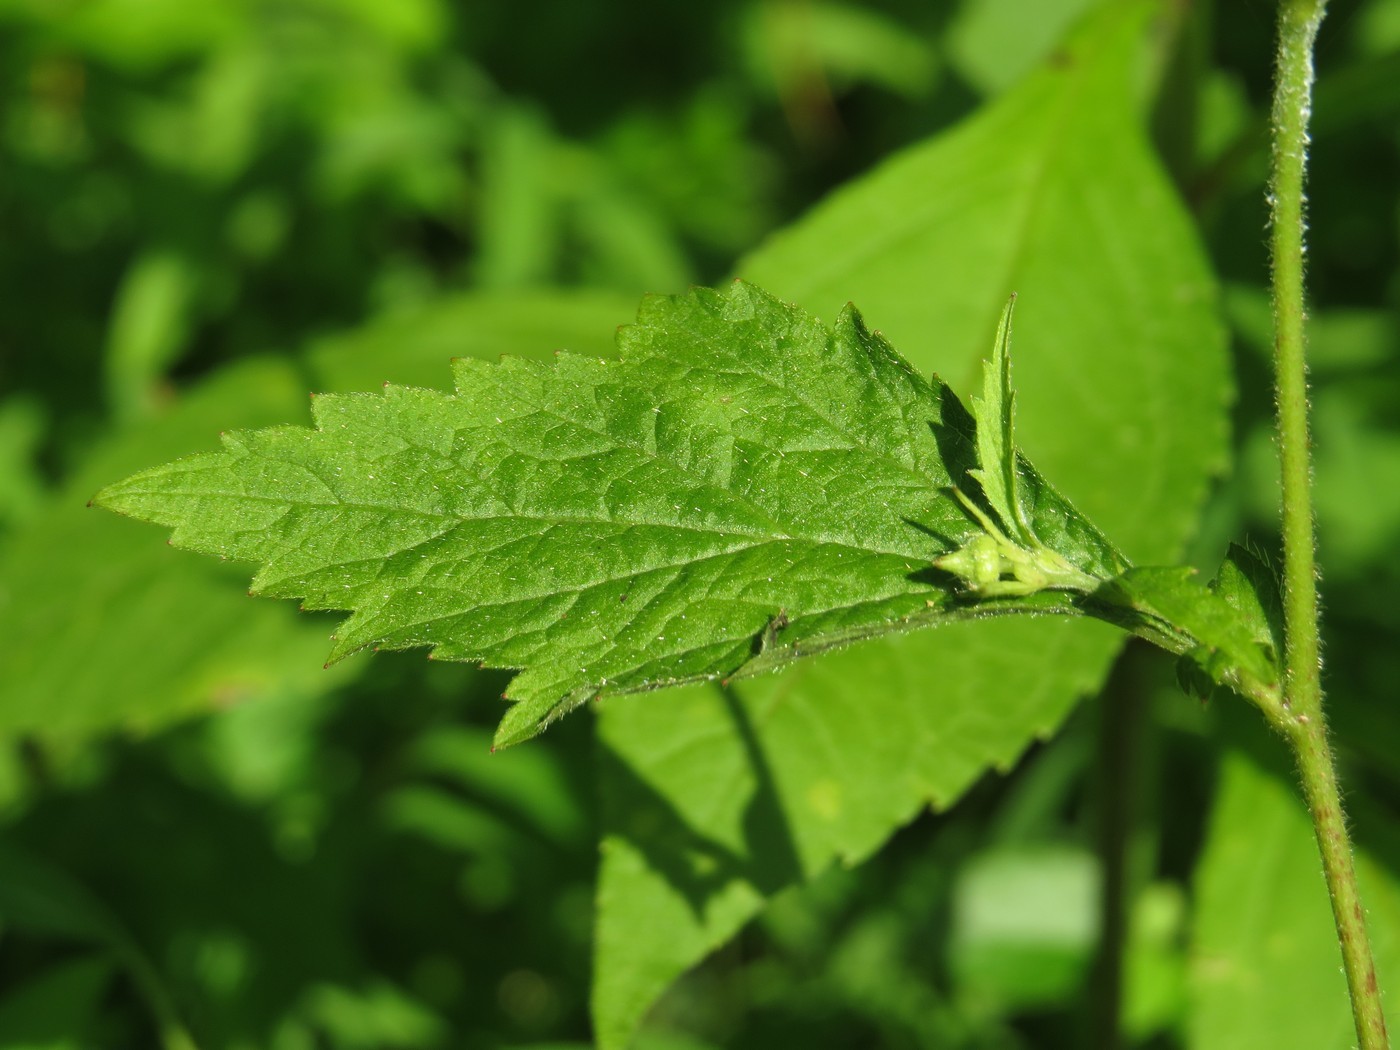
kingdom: Plantae
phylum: Tracheophyta
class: Magnoliopsida
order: Rosales
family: Rosaceae
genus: Geum
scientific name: Geum canadense
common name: White avens
